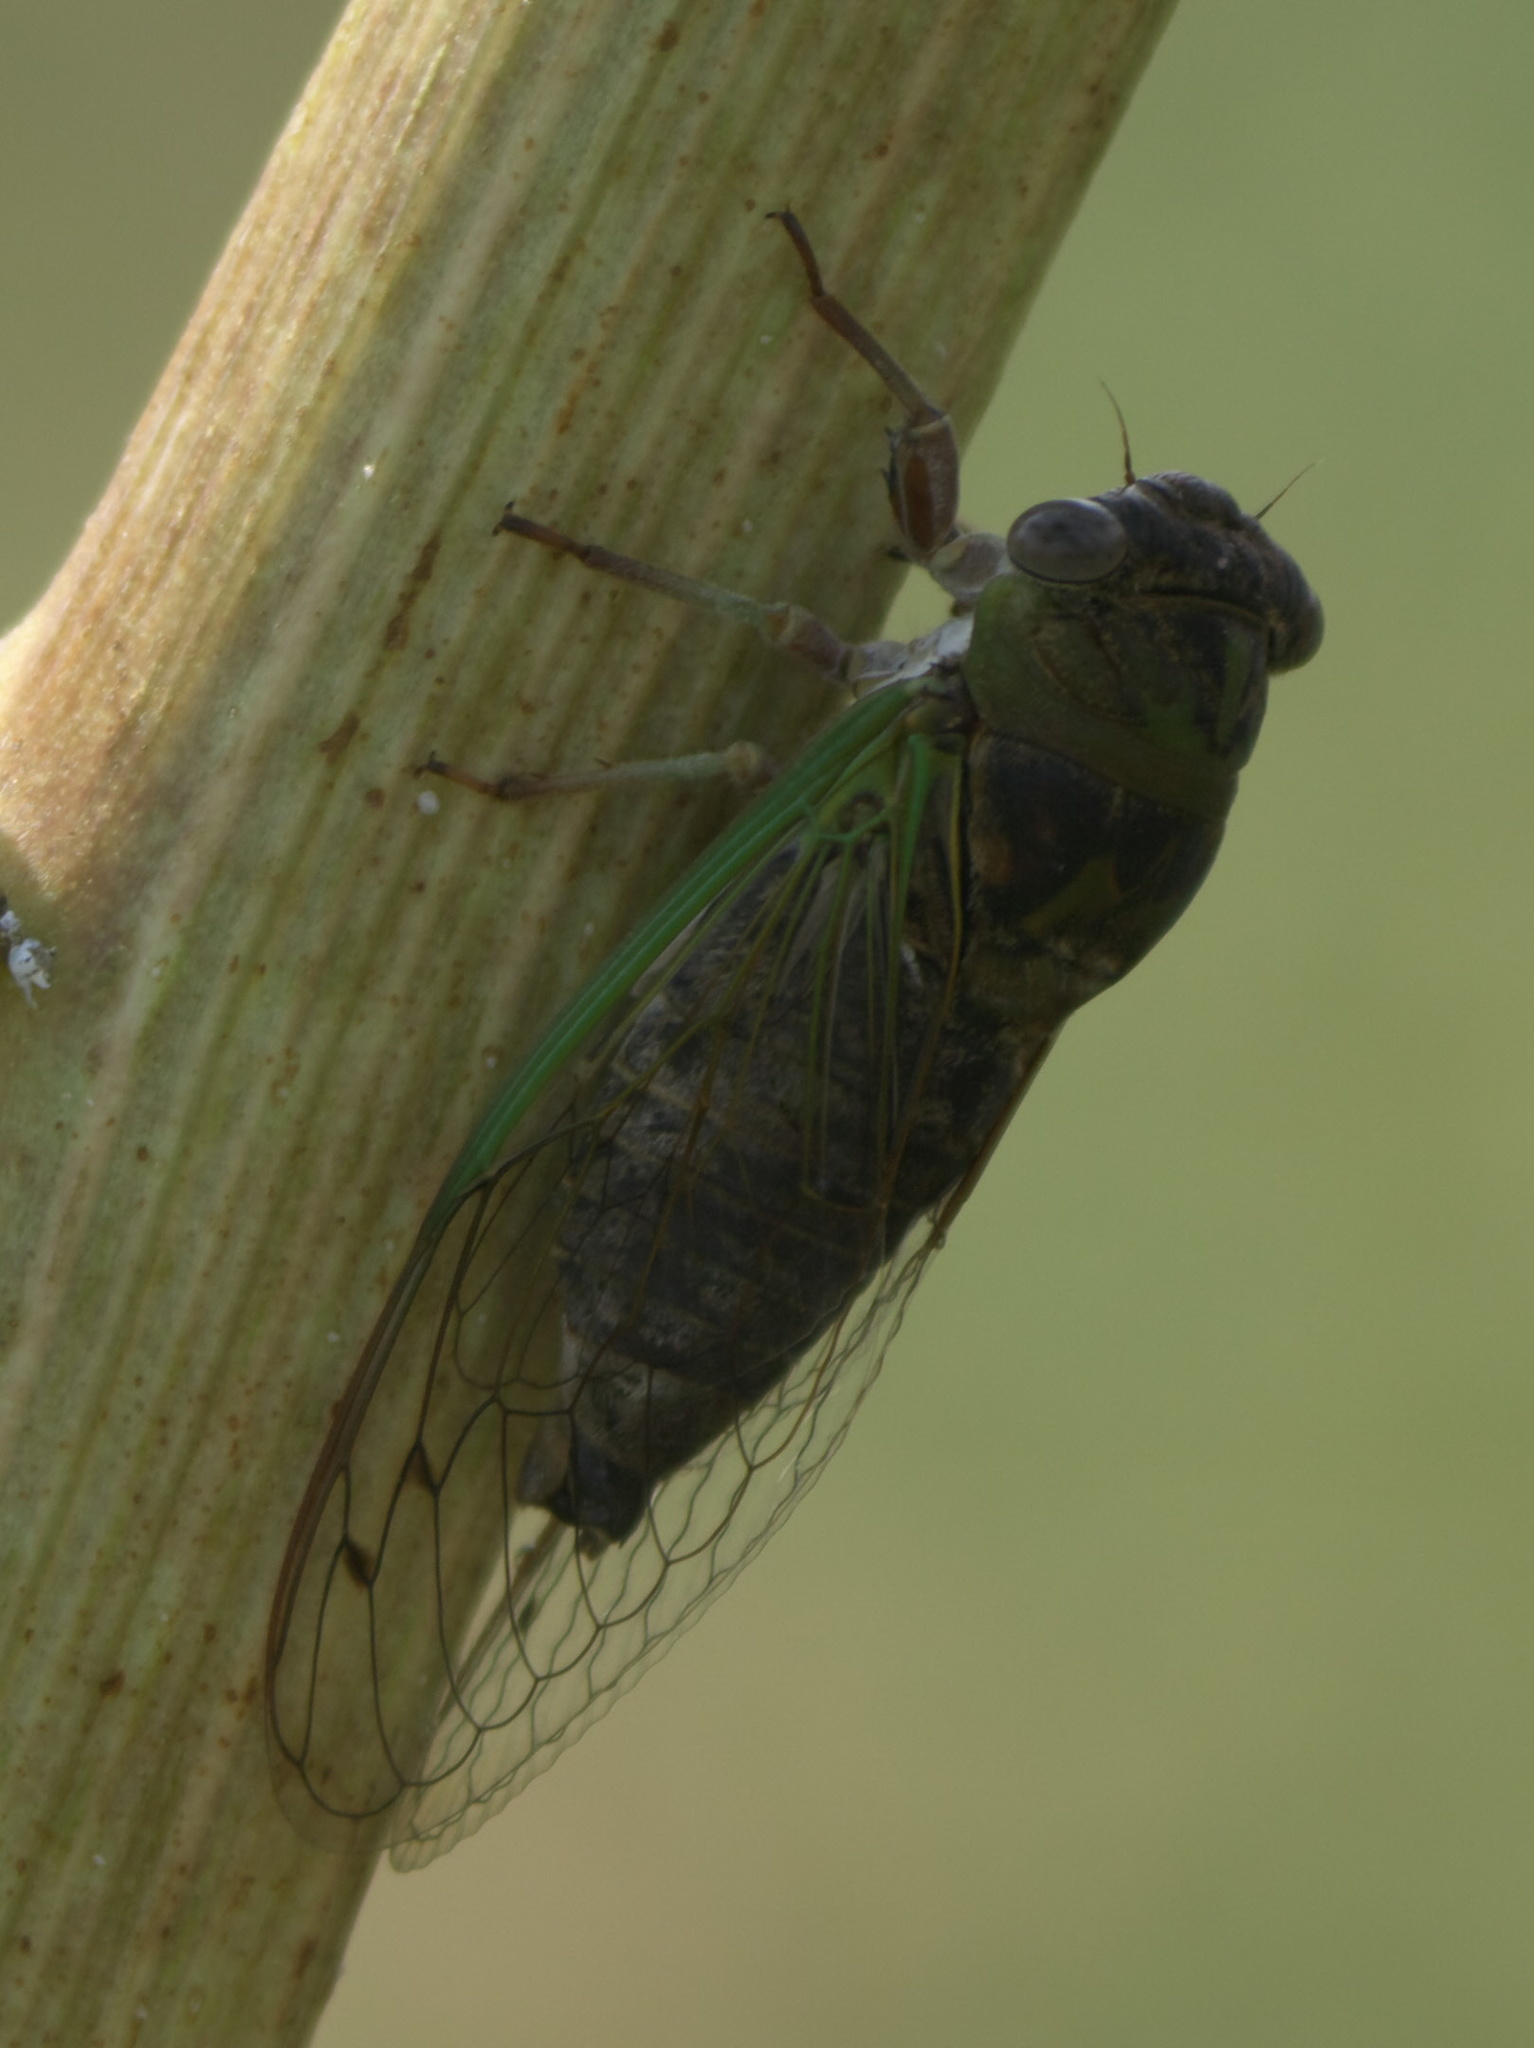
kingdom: Animalia
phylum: Arthropoda
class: Insecta
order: Hemiptera
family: Cicadidae
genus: Neotibicen
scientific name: Neotibicen aurifer
